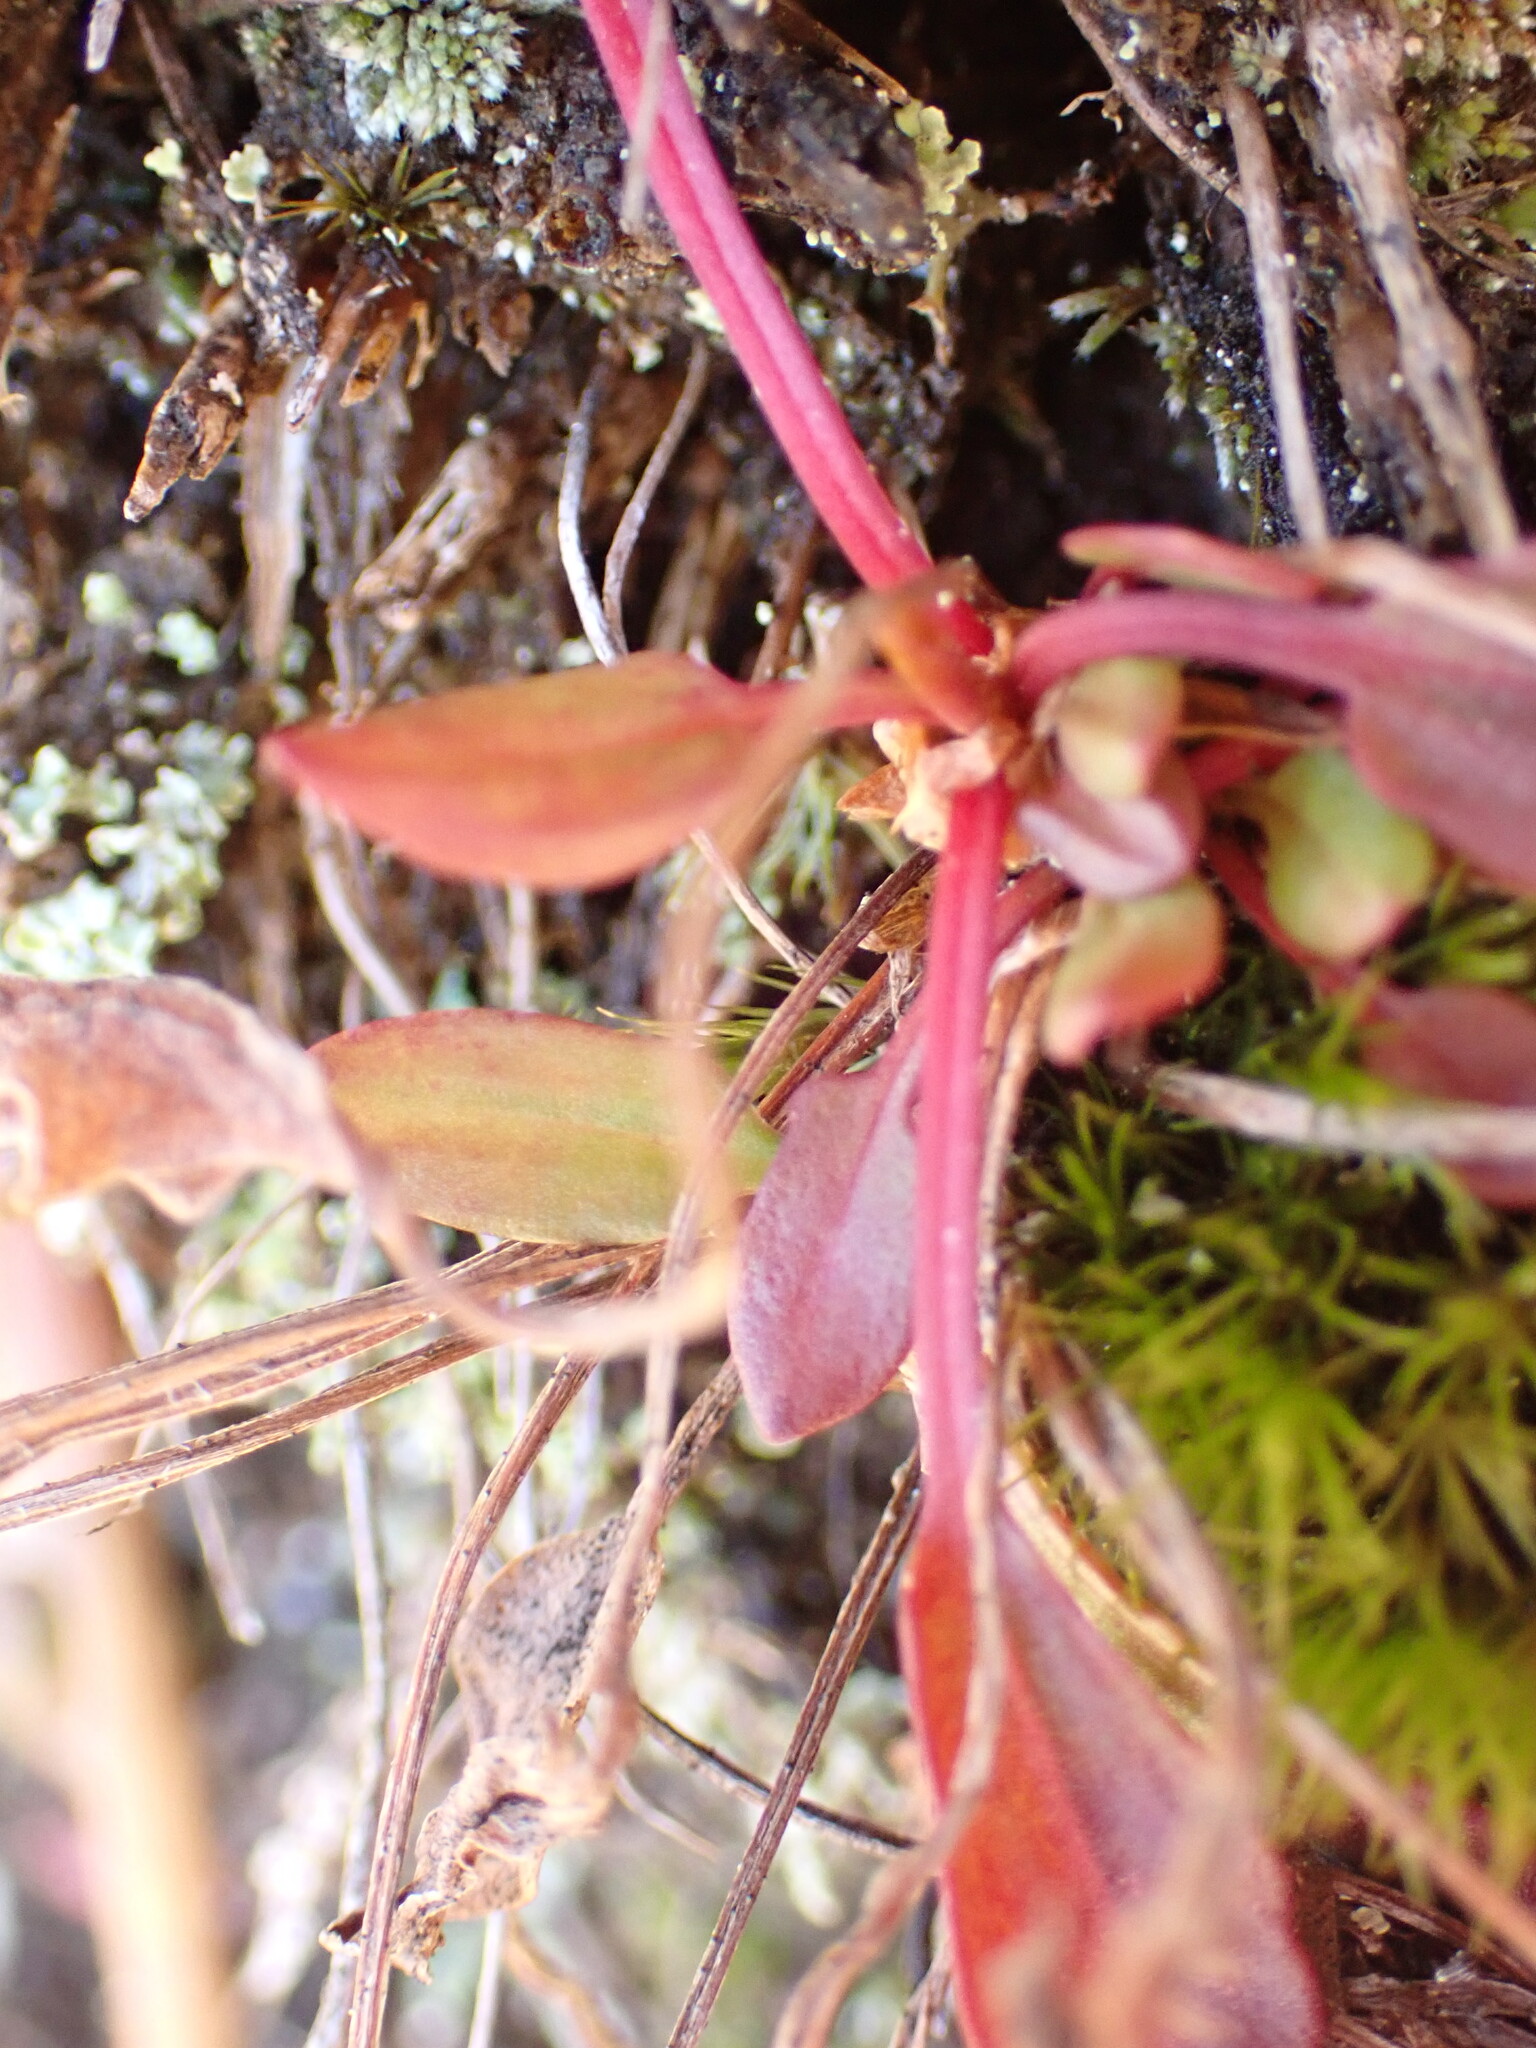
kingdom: Plantae
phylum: Tracheophyta
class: Magnoliopsida
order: Caryophyllales
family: Polygonaceae
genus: Rumex
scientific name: Rumex acetosella
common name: Common sheep sorrel
